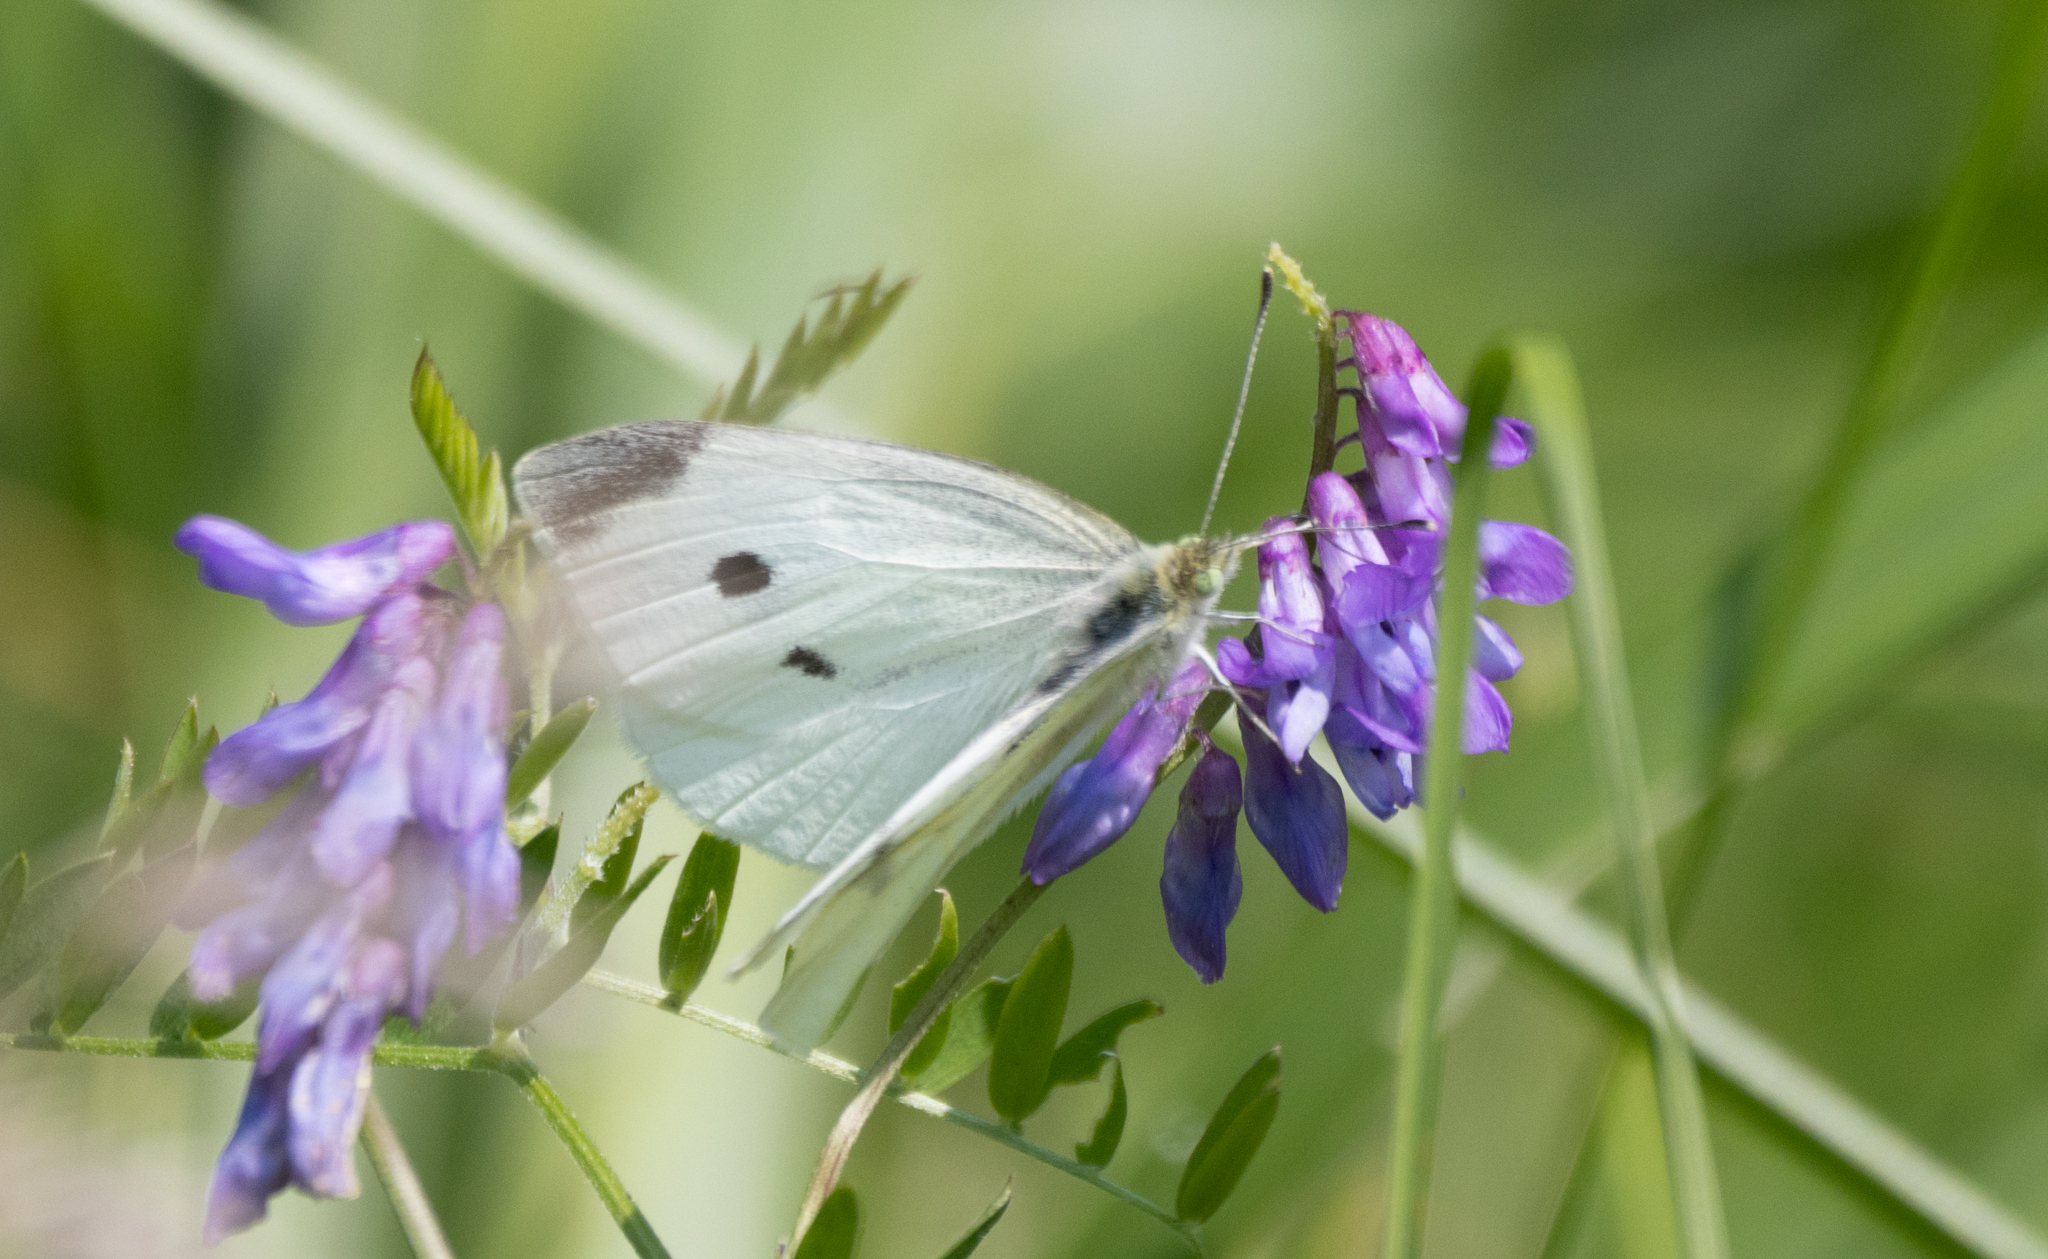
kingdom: Animalia
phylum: Arthropoda
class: Insecta
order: Lepidoptera
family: Pieridae
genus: Pieris
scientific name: Pieris rapae
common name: Small white
